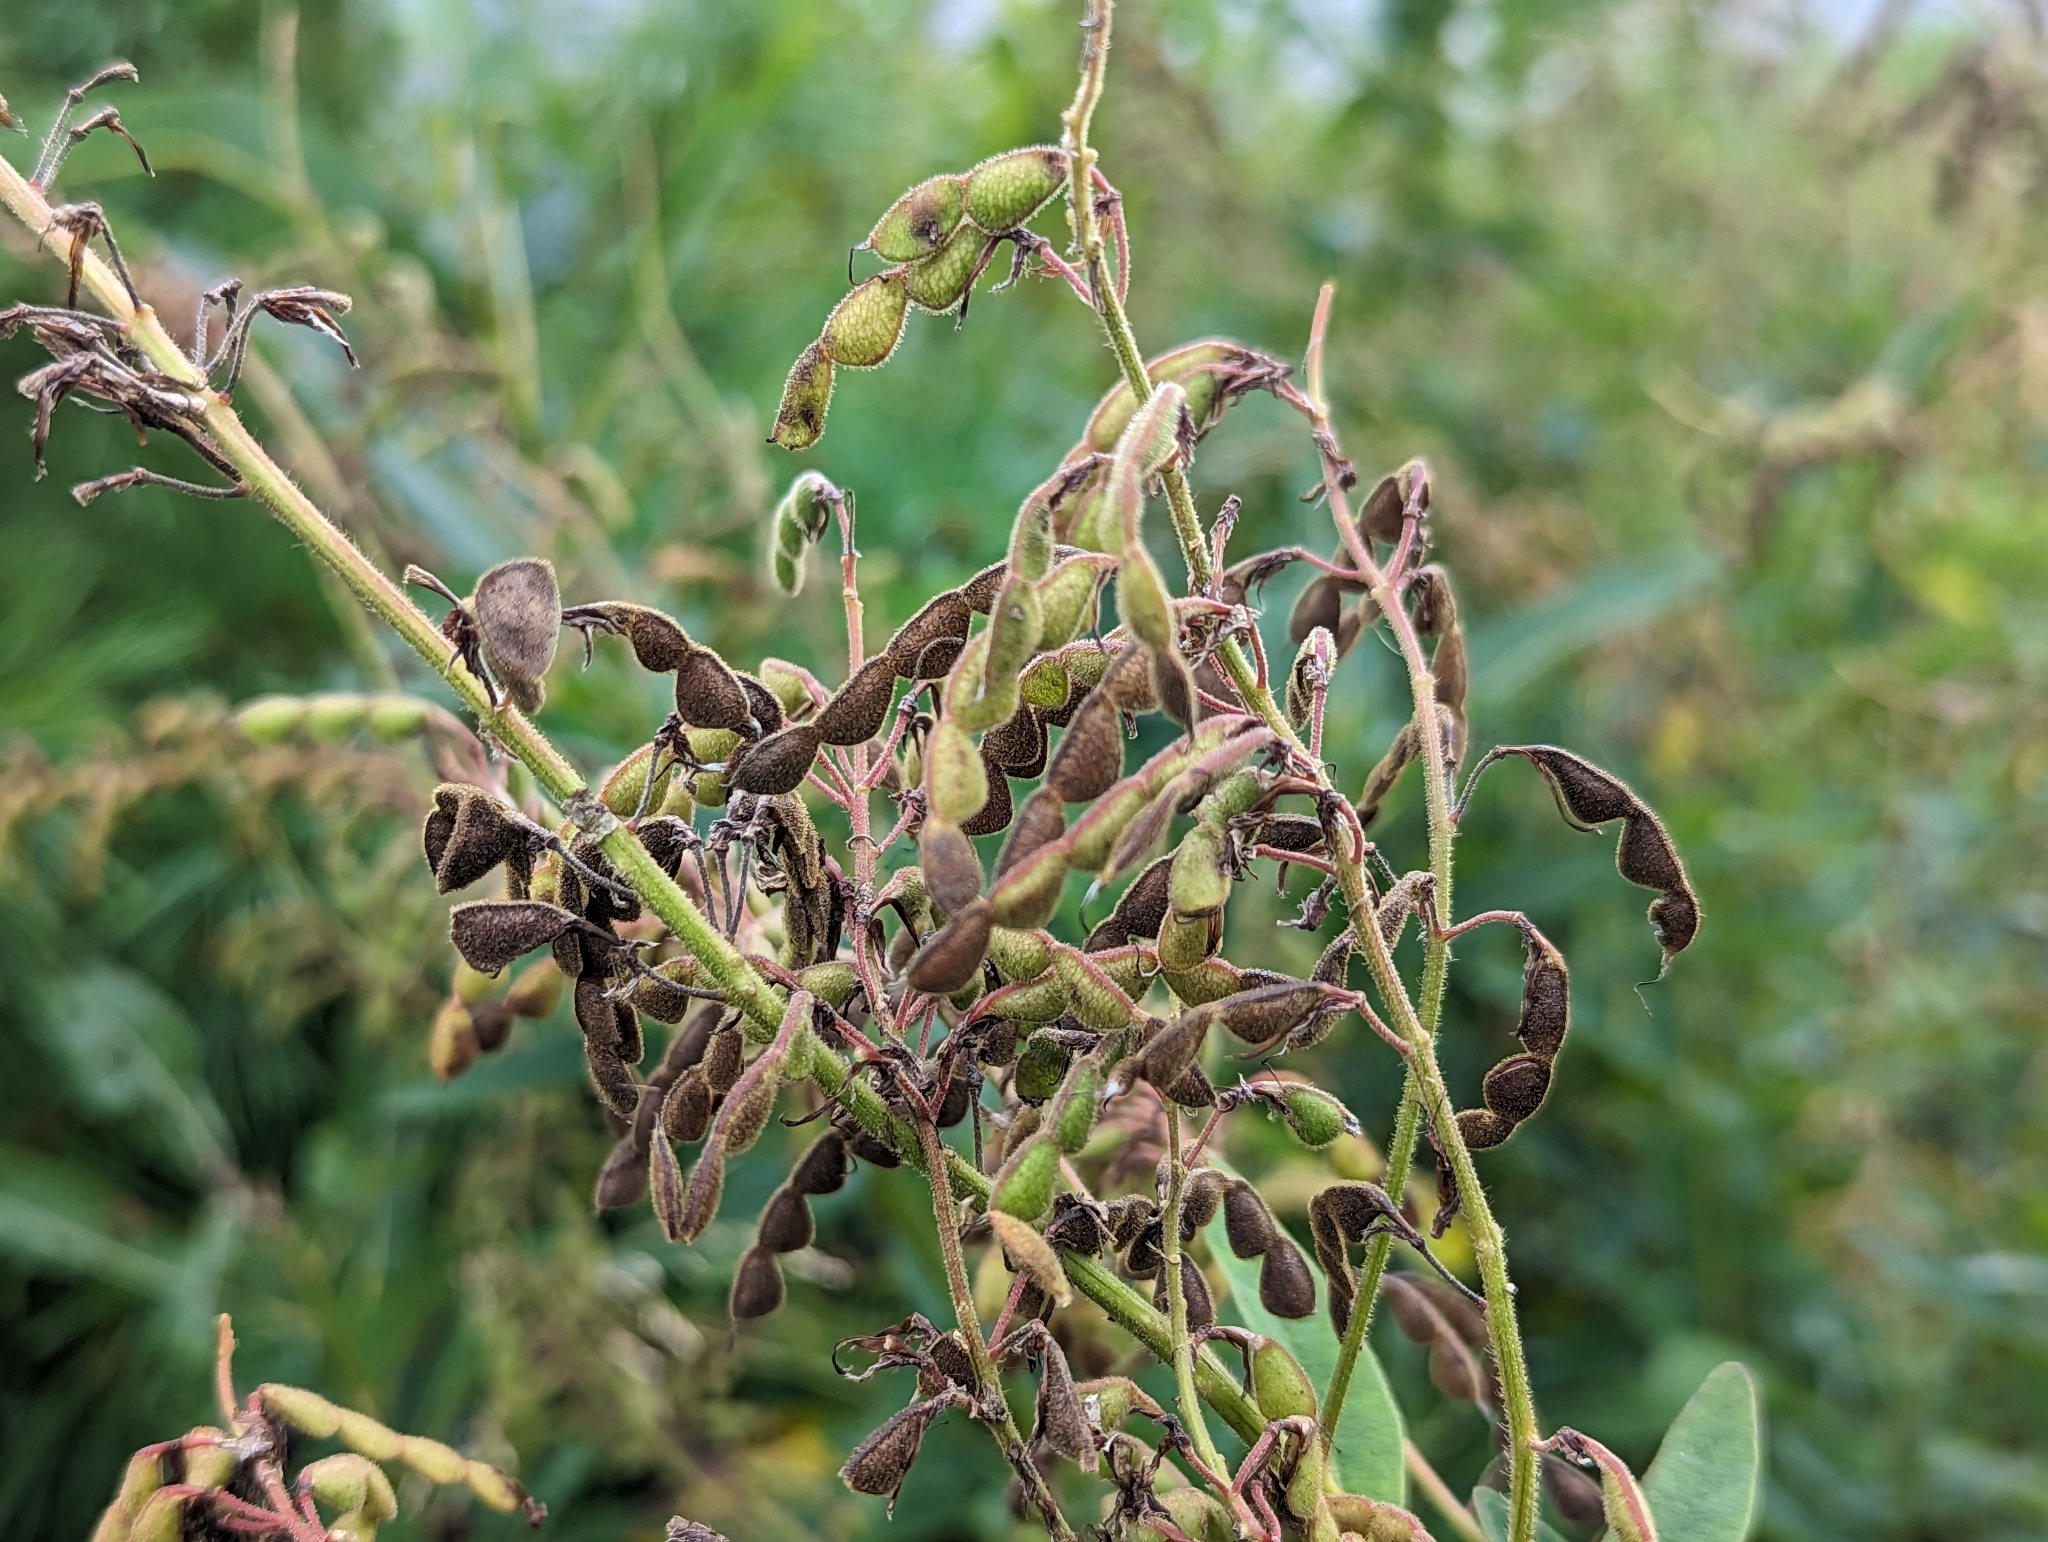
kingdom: Plantae
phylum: Tracheophyta
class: Magnoliopsida
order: Fabales
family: Fabaceae
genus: Desmodium
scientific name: Desmodium canadense
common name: Canada tick-trefoil
